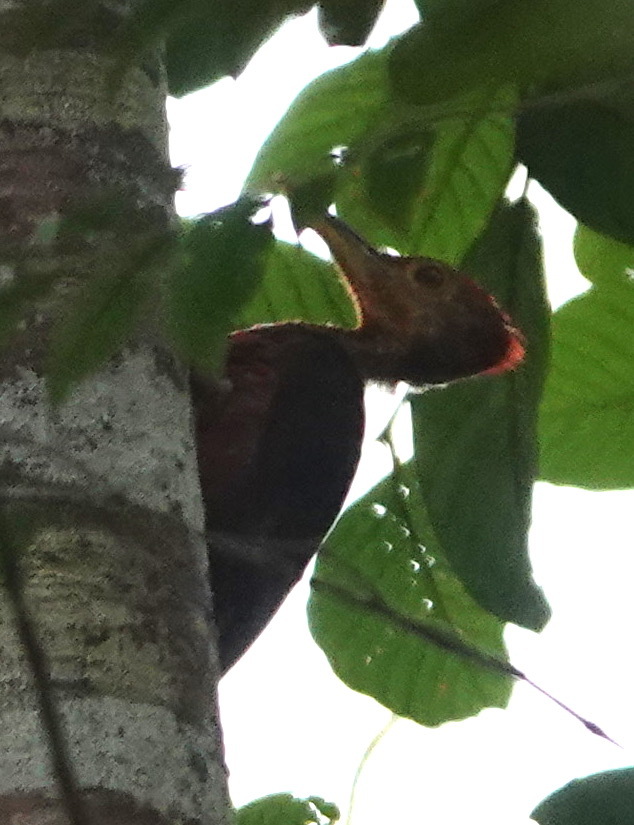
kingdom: Animalia
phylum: Chordata
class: Aves
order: Piciformes
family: Picidae
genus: Reinwardtipicus
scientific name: Reinwardtipicus validus
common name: Orange-backed woodpecker
